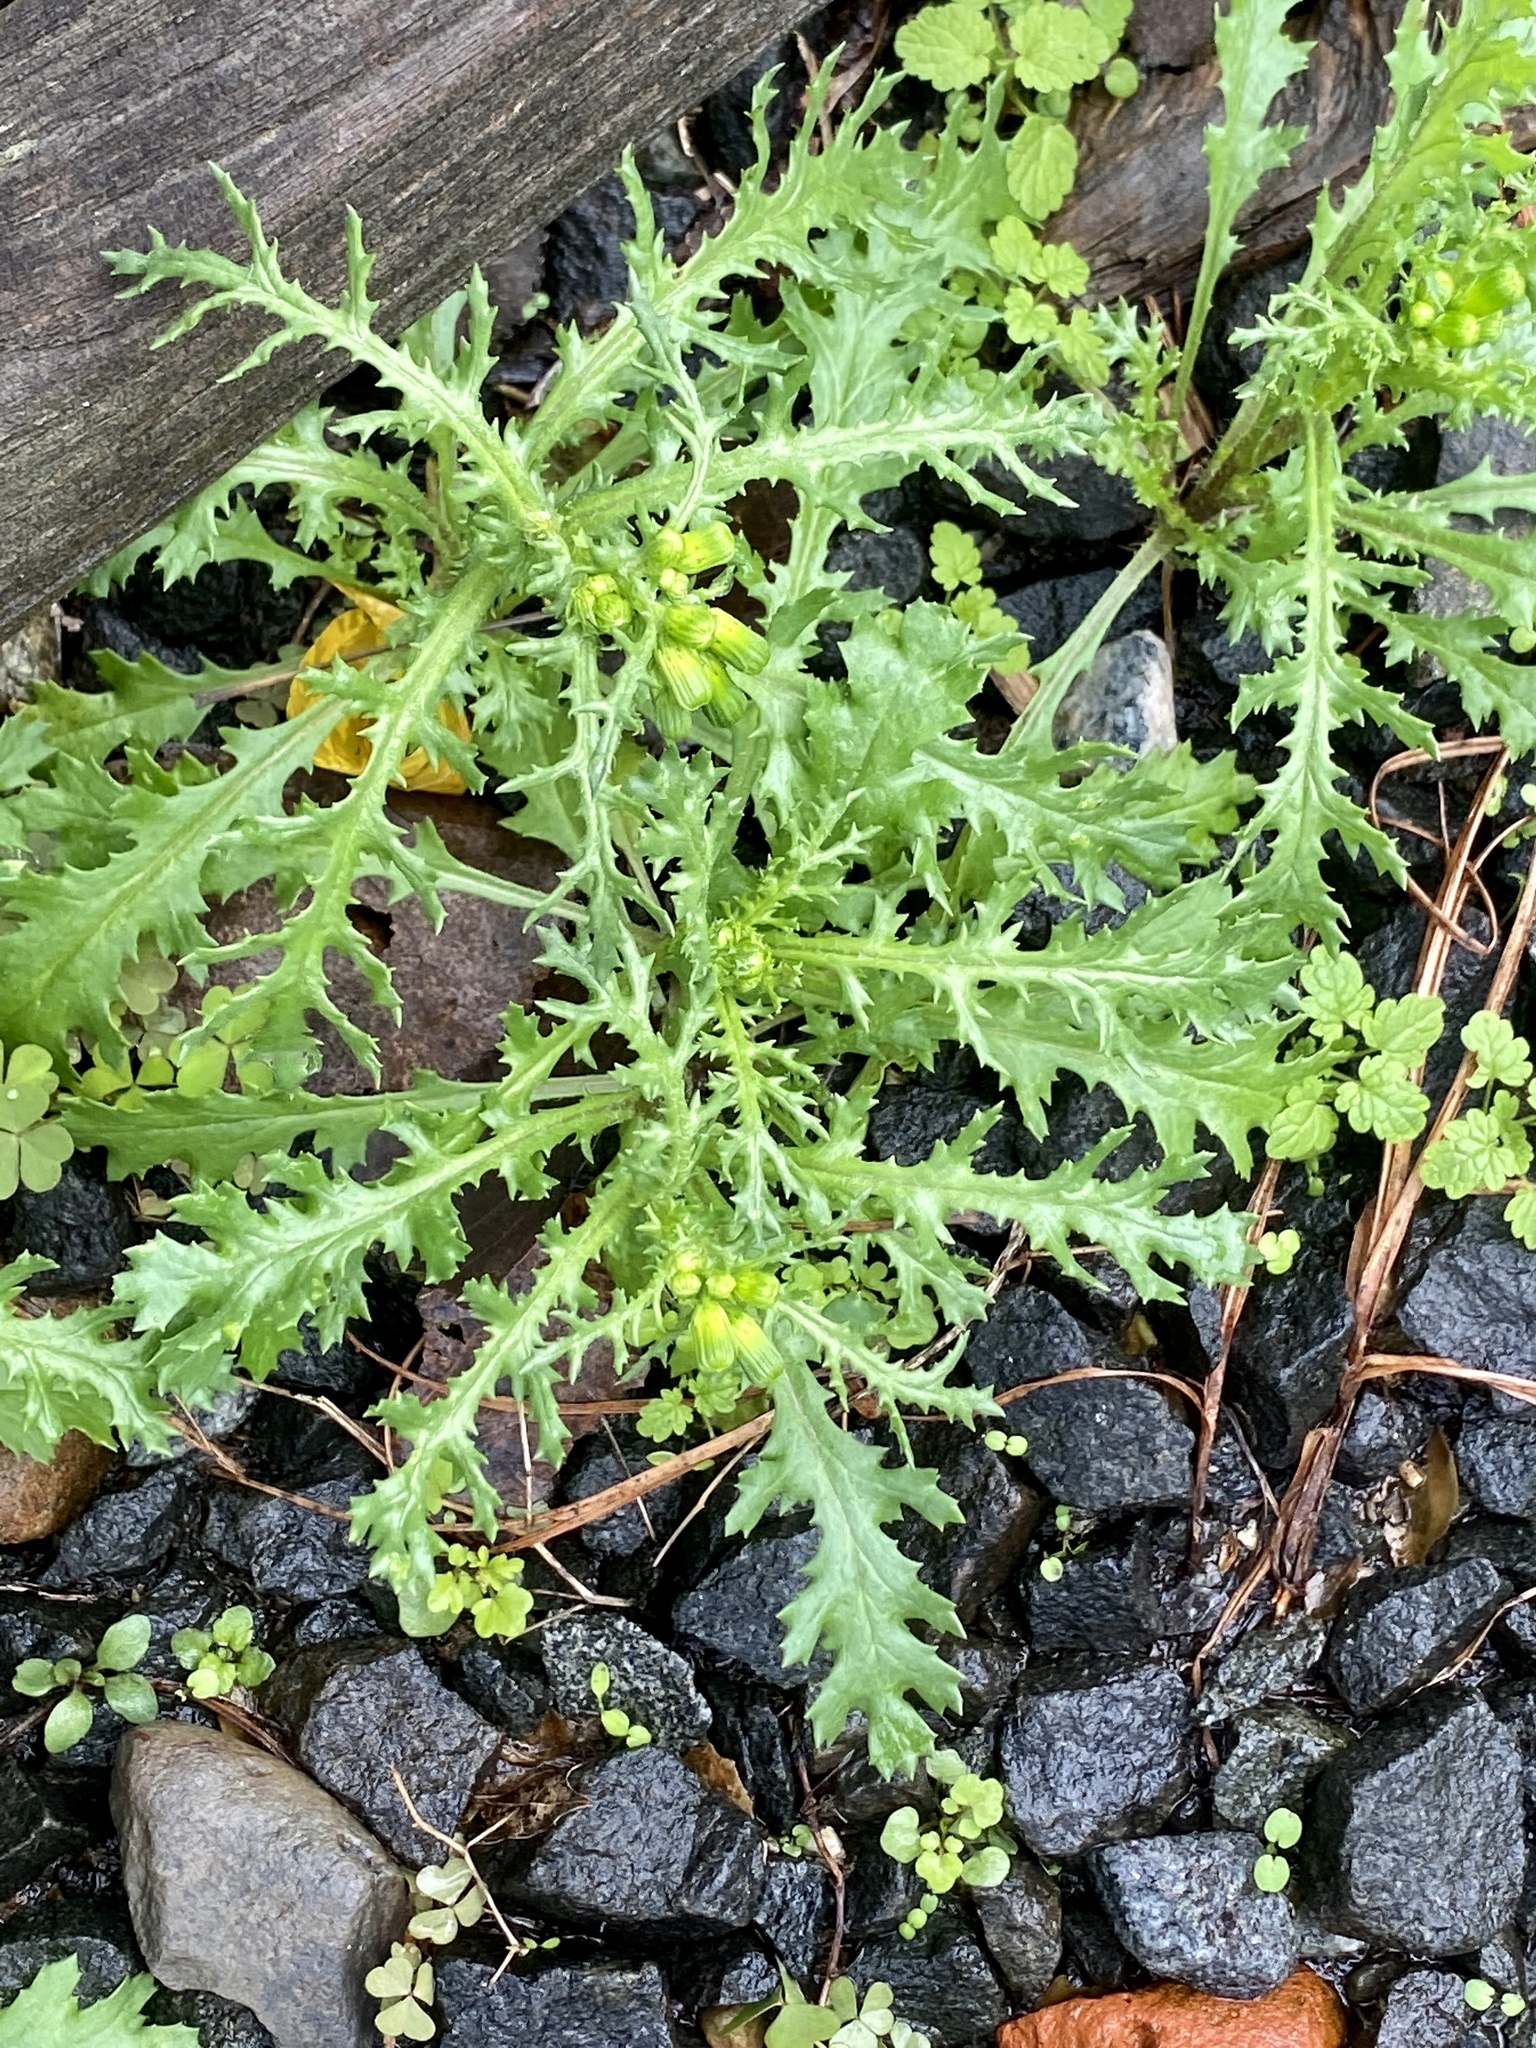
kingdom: Plantae
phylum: Tracheophyta
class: Magnoliopsida
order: Asterales
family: Asteraceae
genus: Senecio
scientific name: Senecio vulgaris
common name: Old-man-in-the-spring
